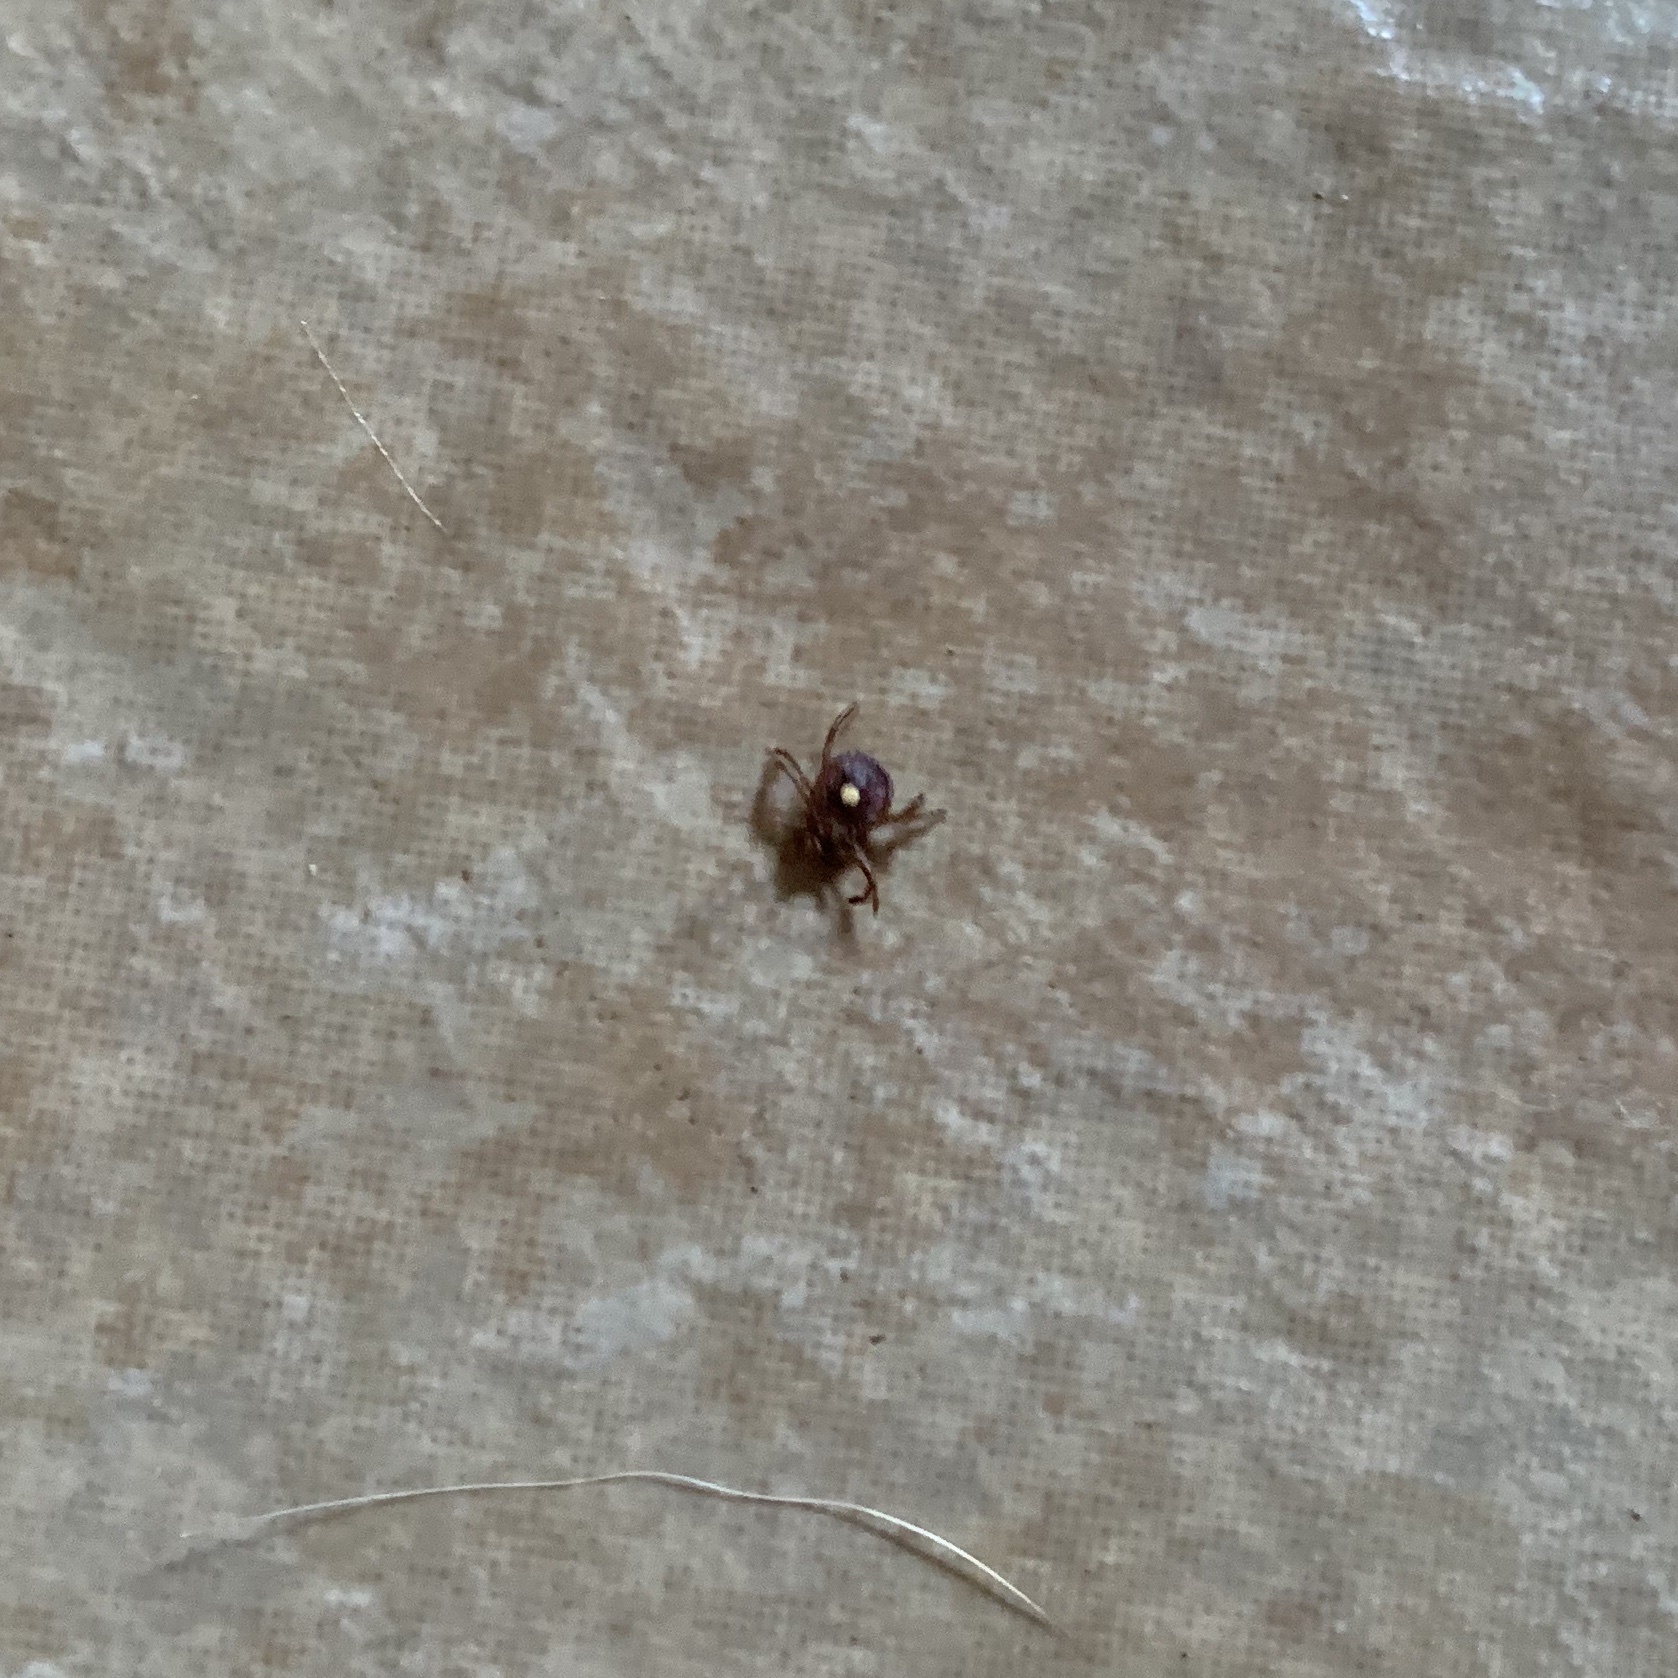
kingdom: Animalia
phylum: Arthropoda
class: Arachnida
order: Ixodida
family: Ixodidae
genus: Amblyomma
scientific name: Amblyomma americanum
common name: Lone star tick
